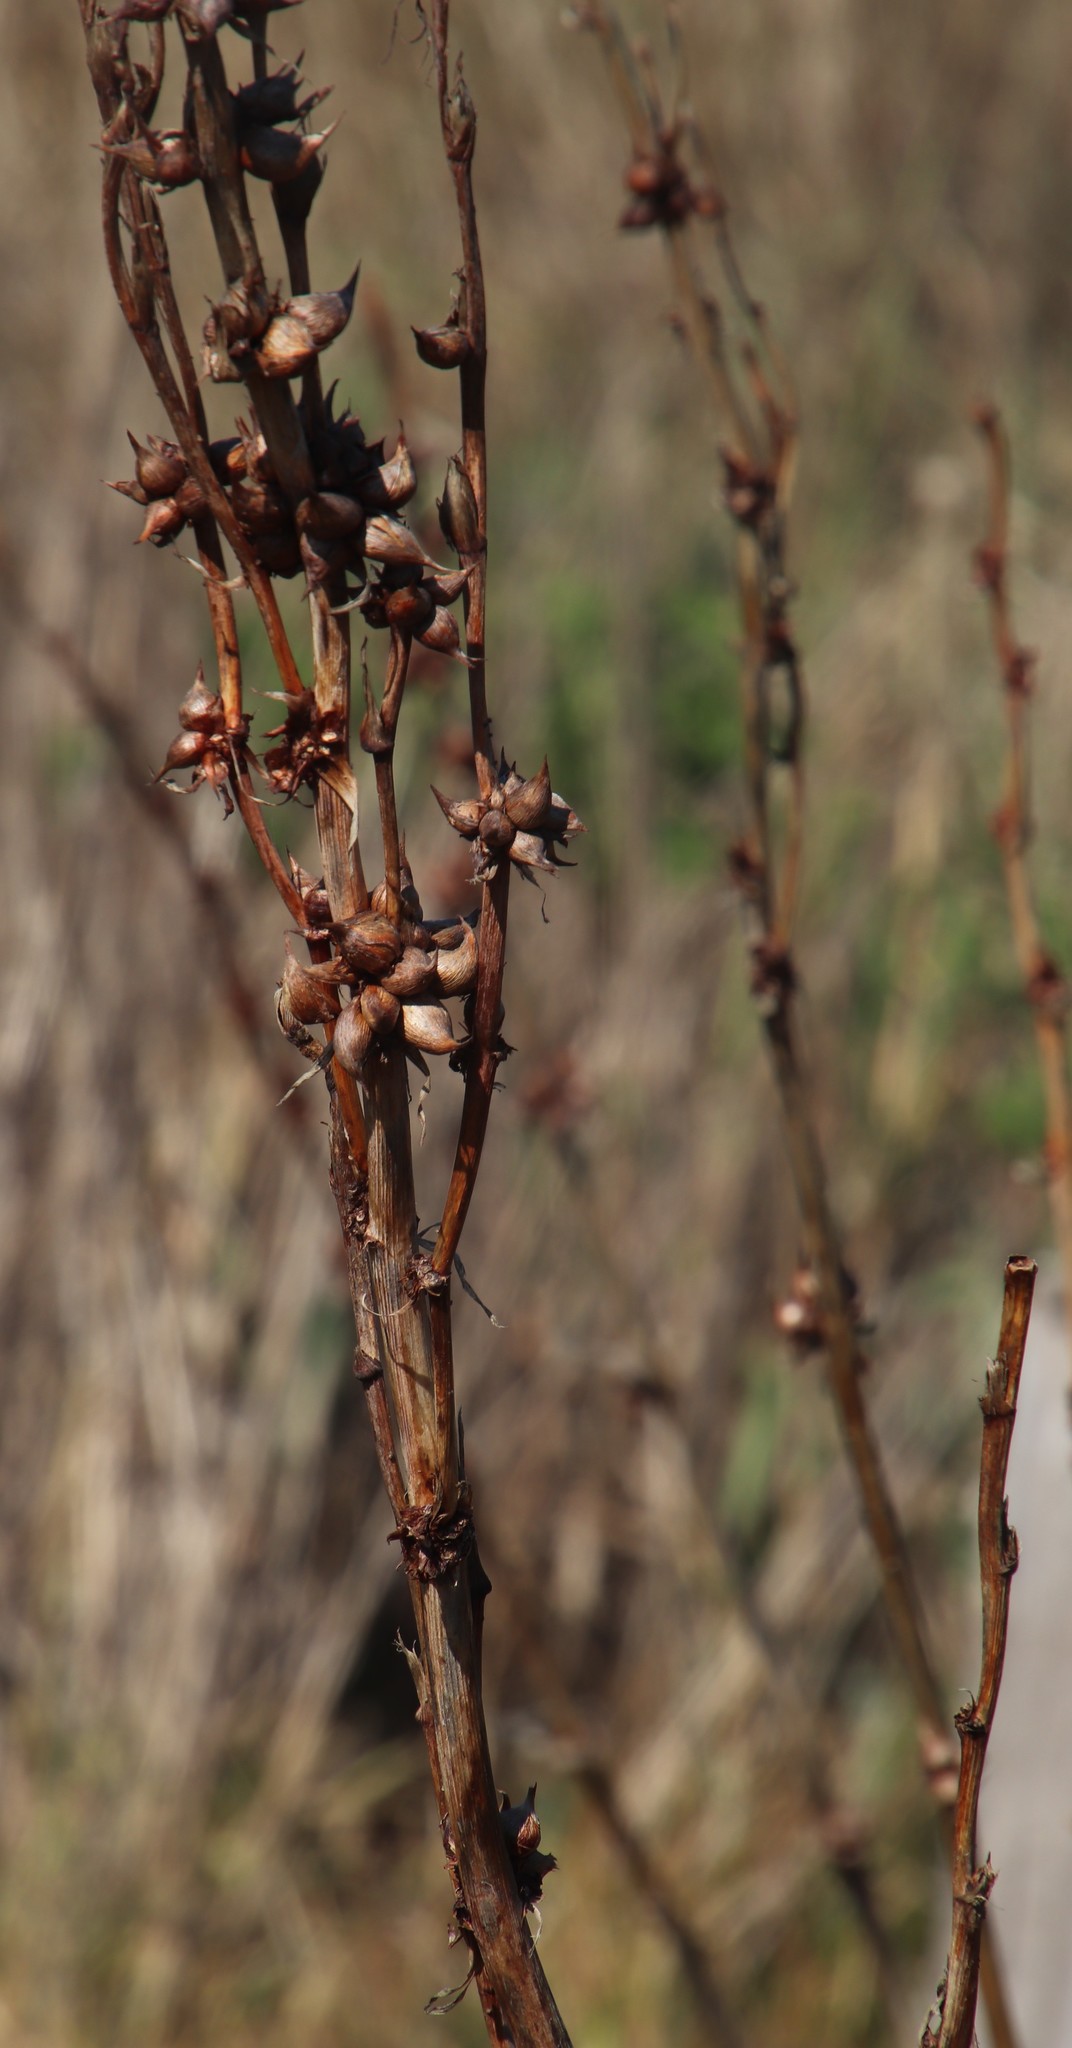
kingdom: Plantae
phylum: Tracheophyta
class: Liliopsida
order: Asparagales
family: Iridaceae
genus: Watsonia
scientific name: Watsonia meriana
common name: Bulbil bugle-lily
